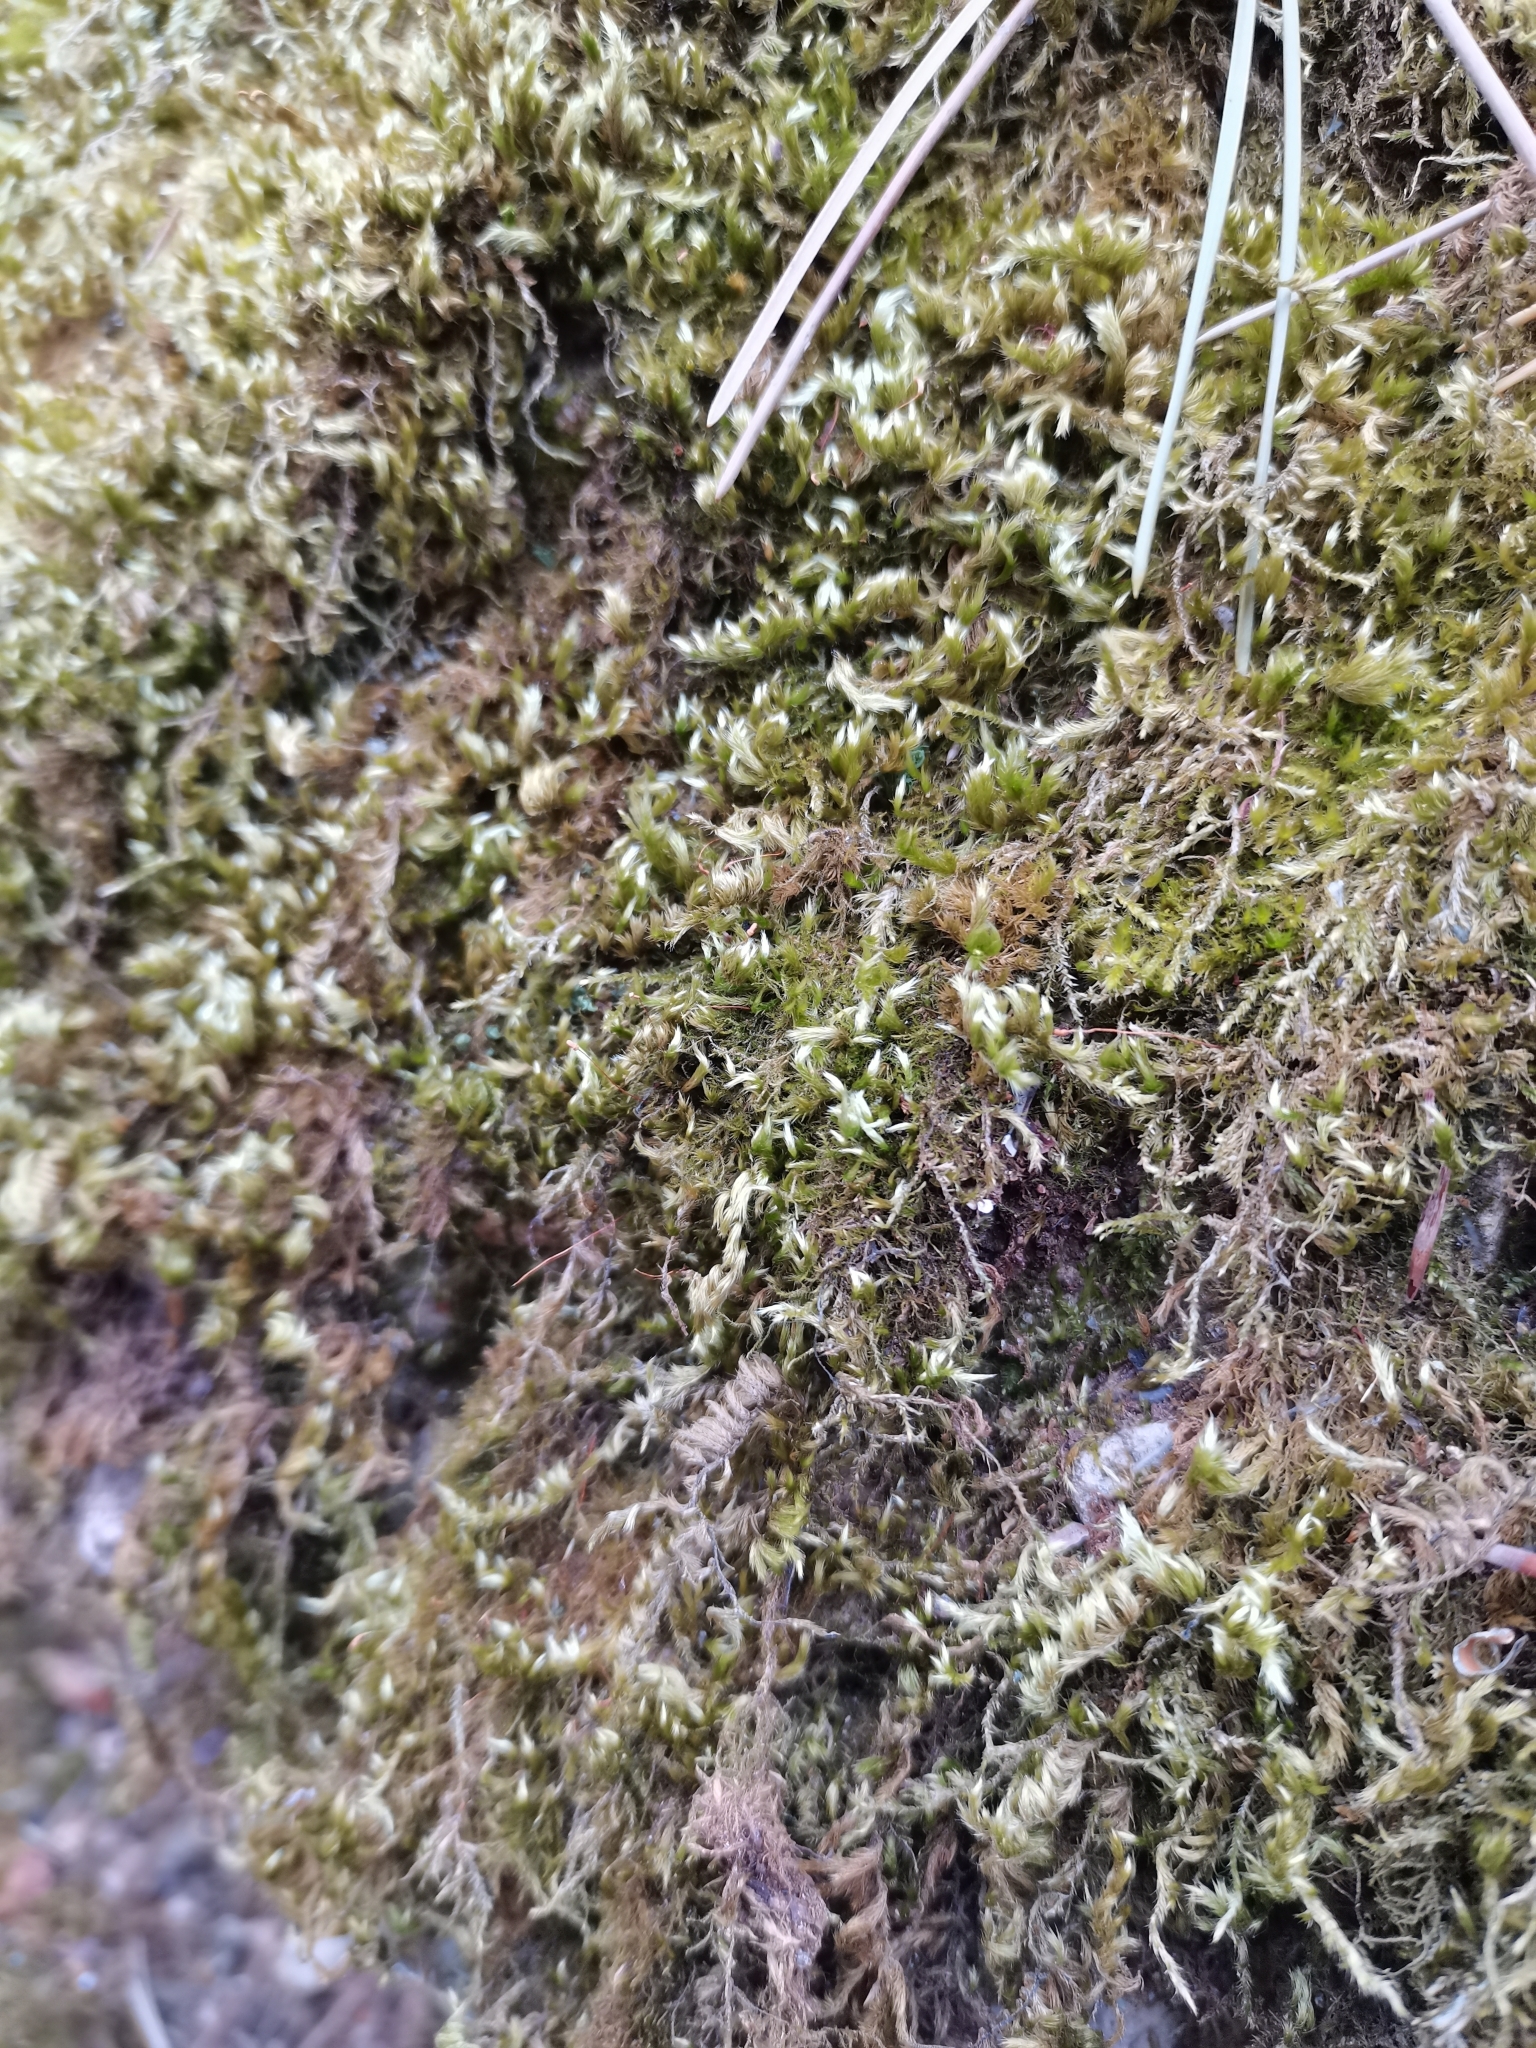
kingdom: Plantae
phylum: Bryophyta
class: Bryopsida
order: Hypnales
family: Brachytheciaceae
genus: Homalothecium
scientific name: Homalothecium sericeum
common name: Silky wall feather-moss
